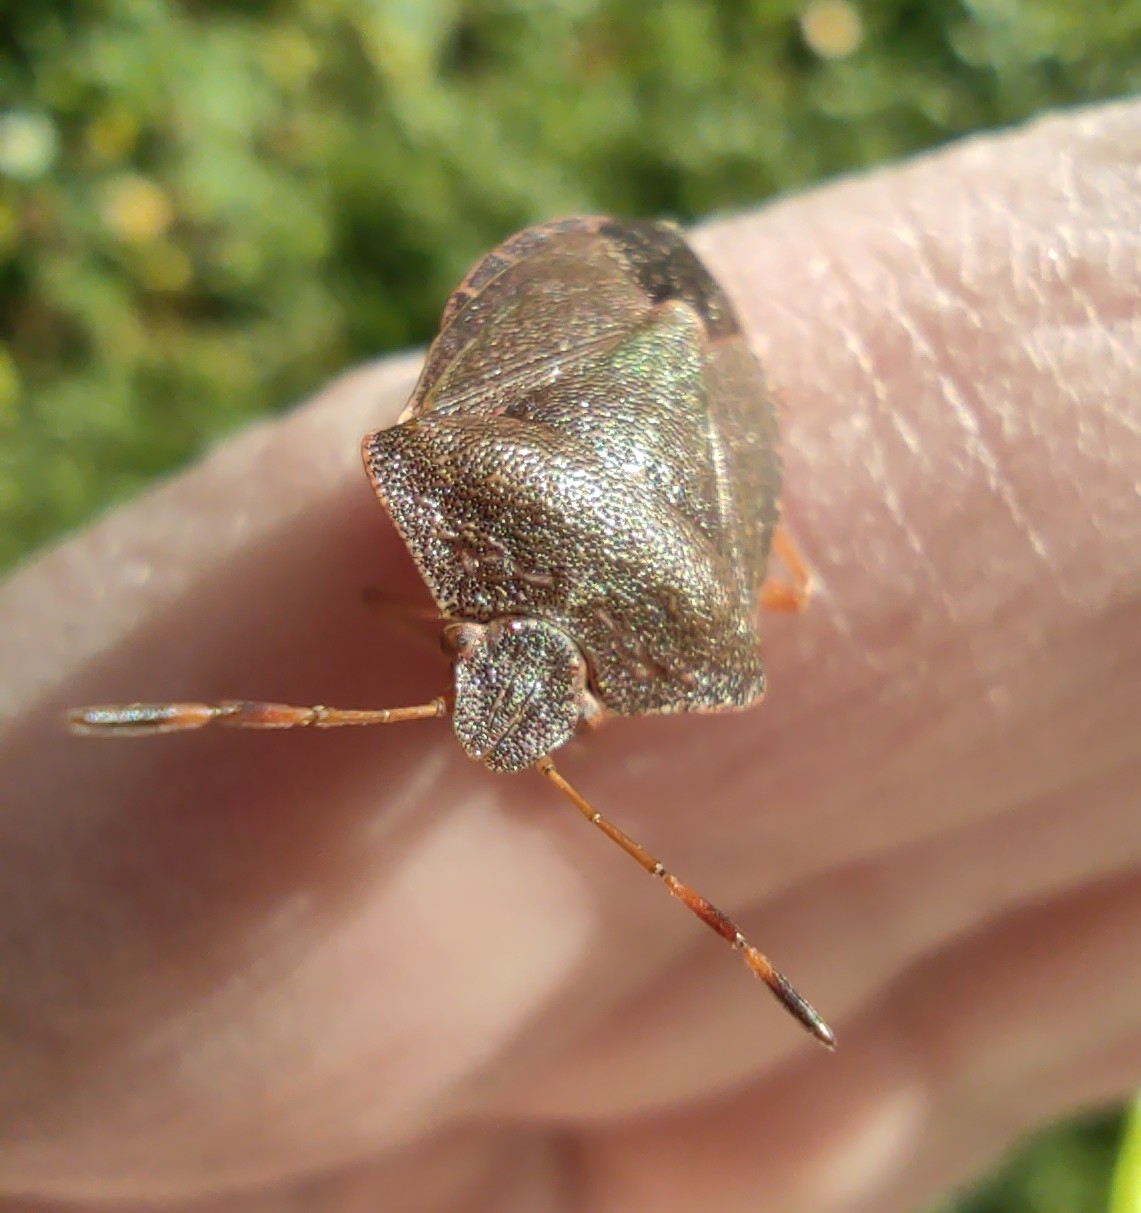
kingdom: Animalia
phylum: Arthropoda
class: Insecta
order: Hemiptera
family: Pentatomidae
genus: Palomena
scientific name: Palomena prasina
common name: Green shieldbug
